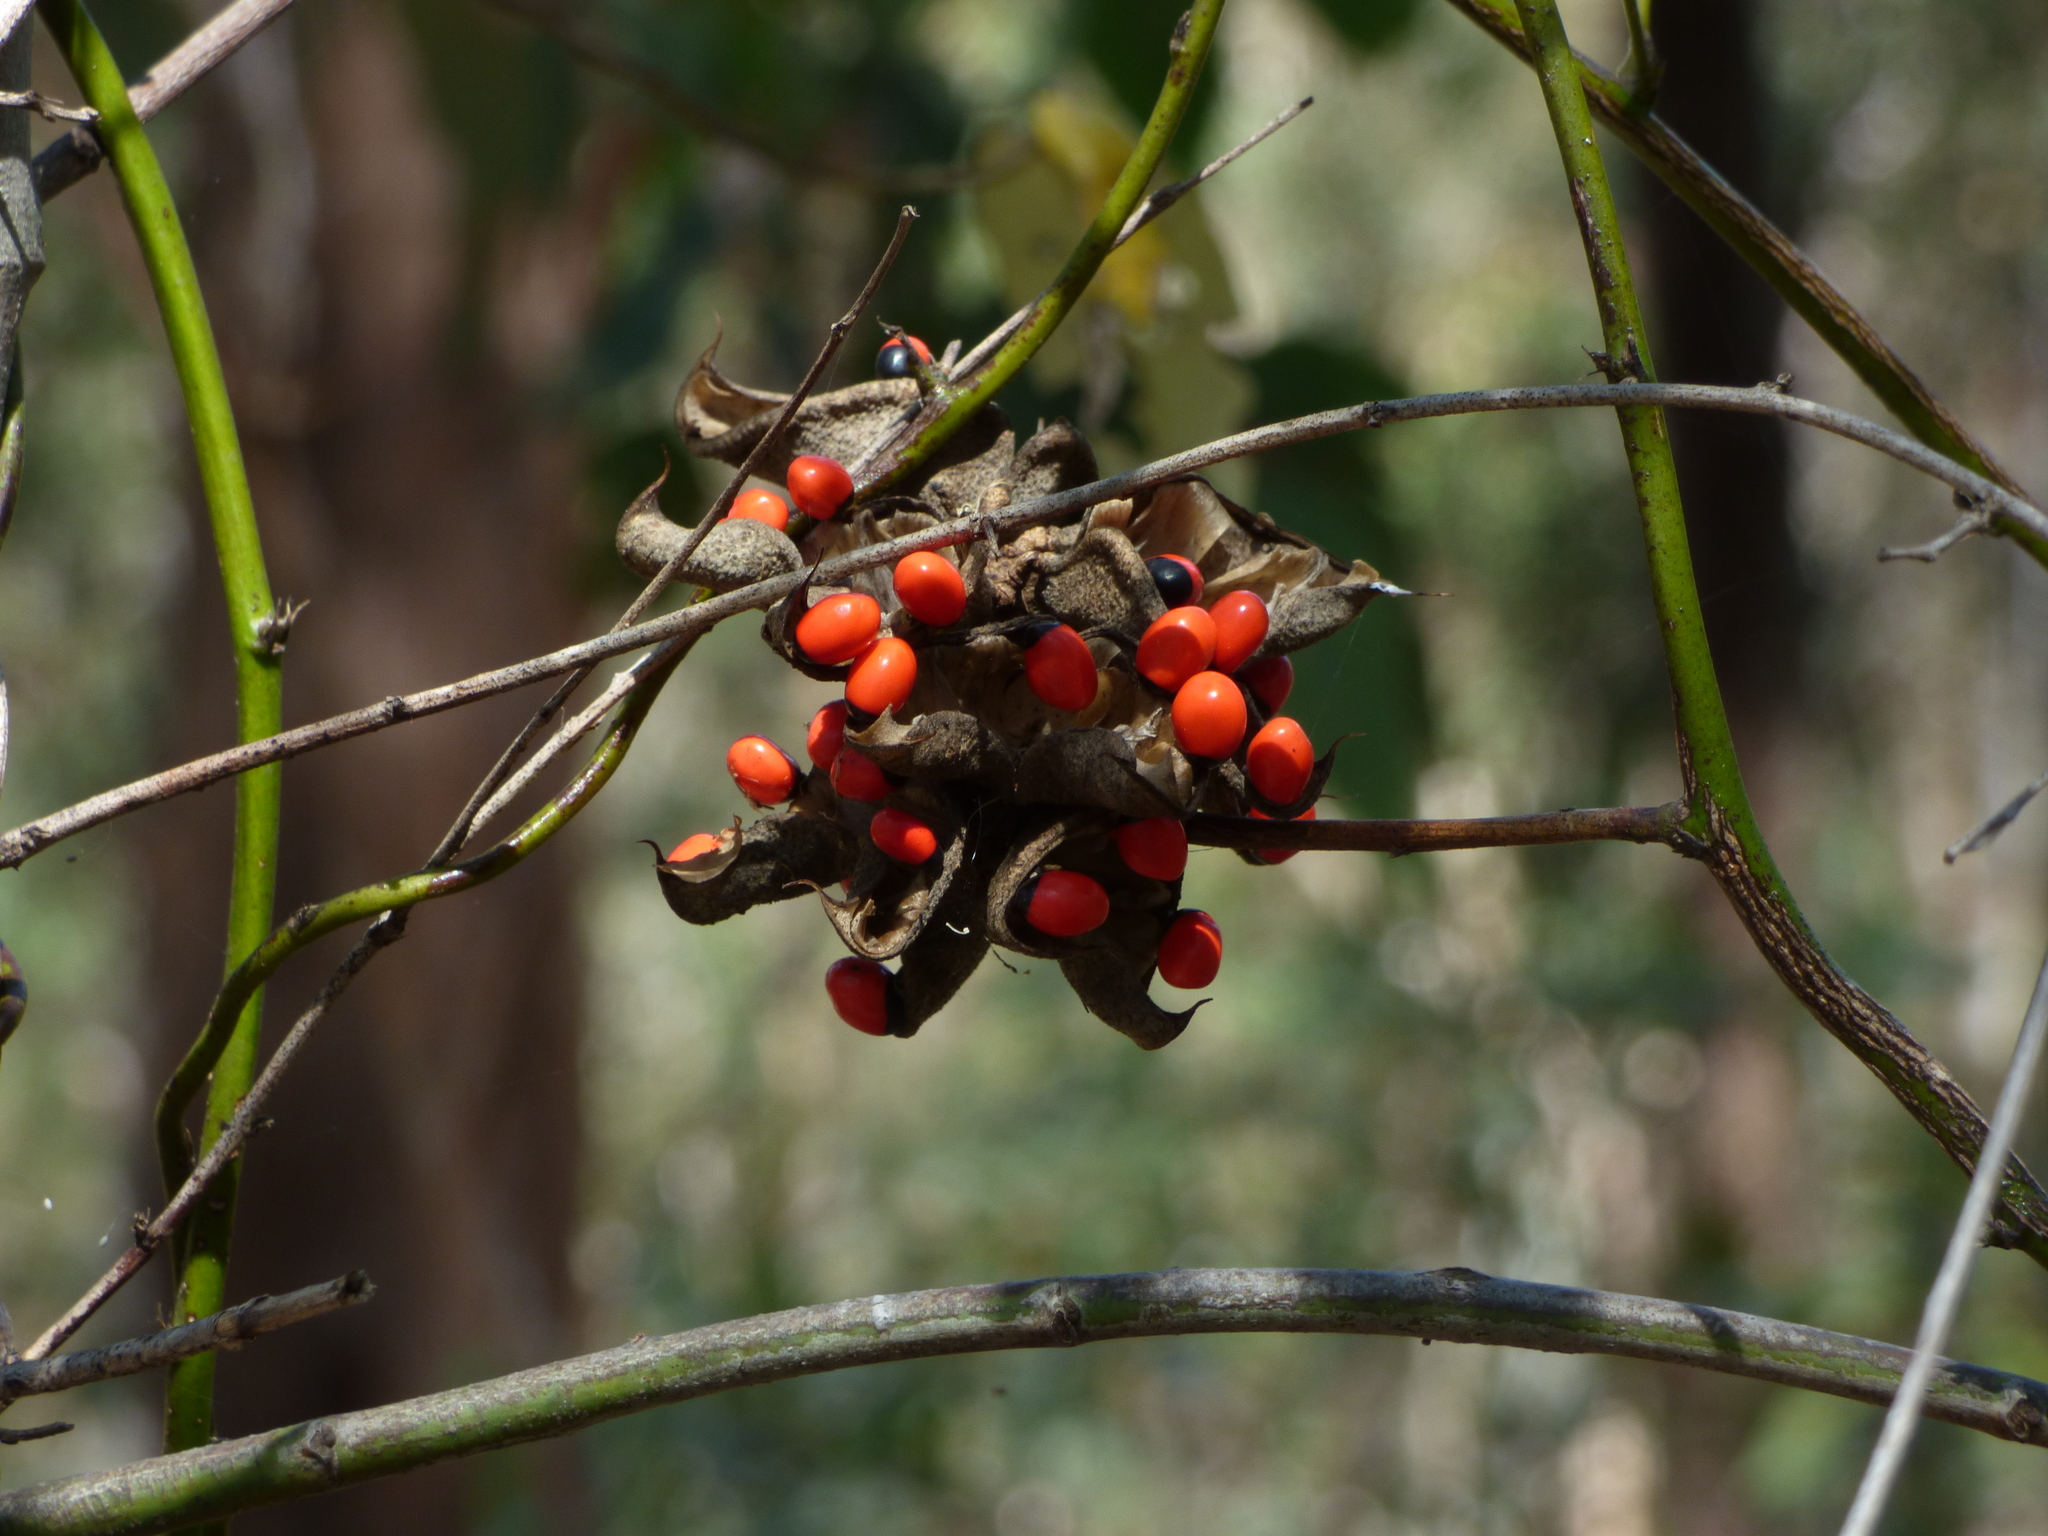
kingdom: Plantae
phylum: Tracheophyta
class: Magnoliopsida
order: Fabales
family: Fabaceae
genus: Abrus
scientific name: Abrus precatorius
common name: Rosarypea
